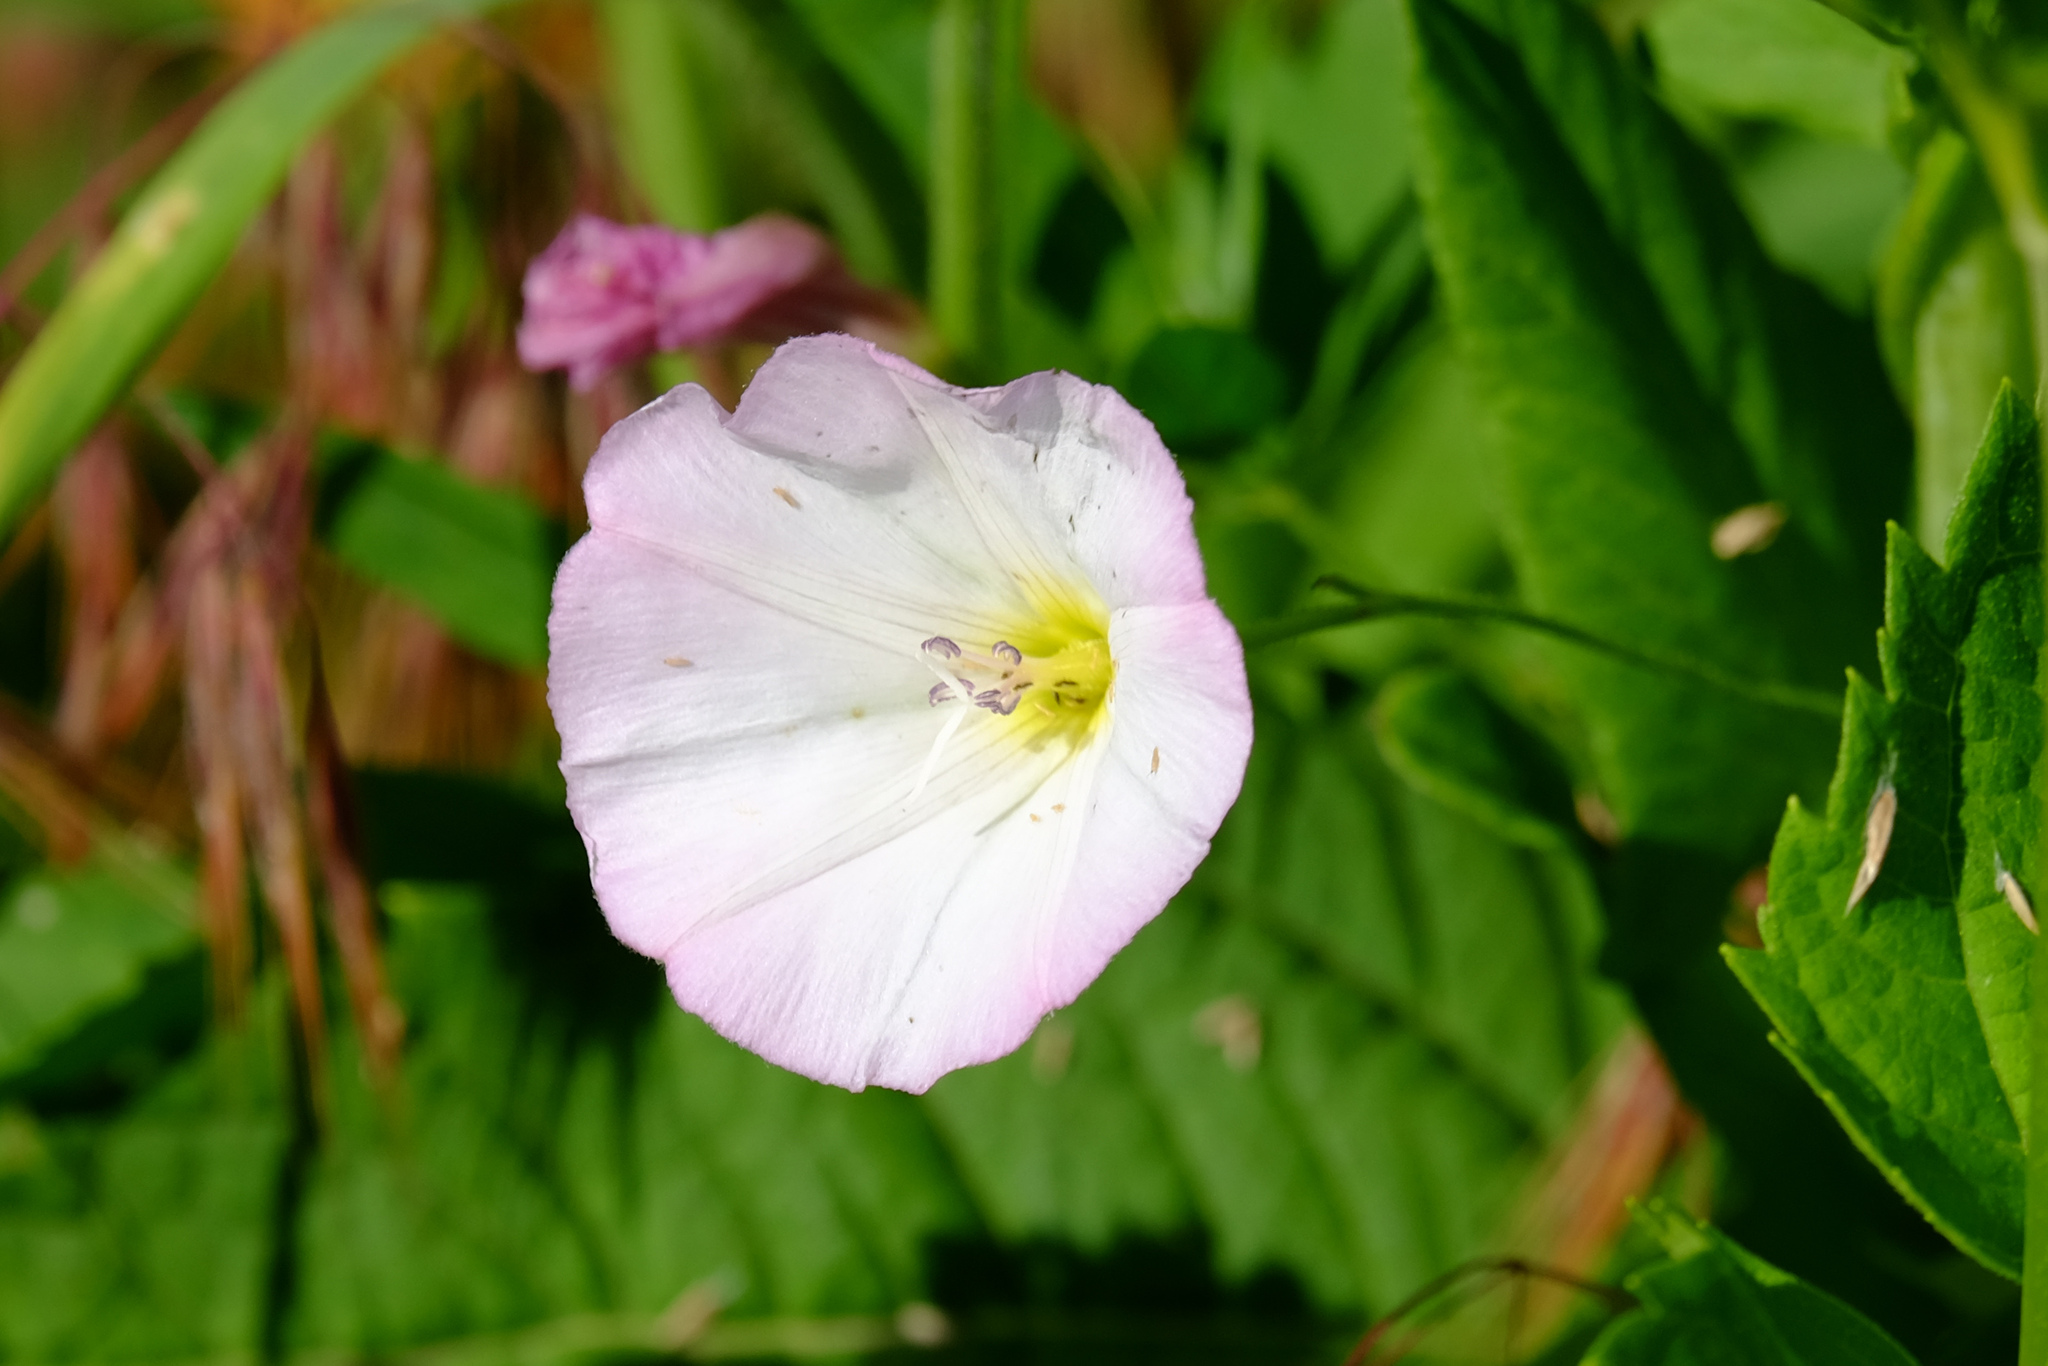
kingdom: Plantae
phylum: Tracheophyta
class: Magnoliopsida
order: Solanales
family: Convolvulaceae
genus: Convolvulus
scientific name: Convolvulus arvensis
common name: Field bindweed
